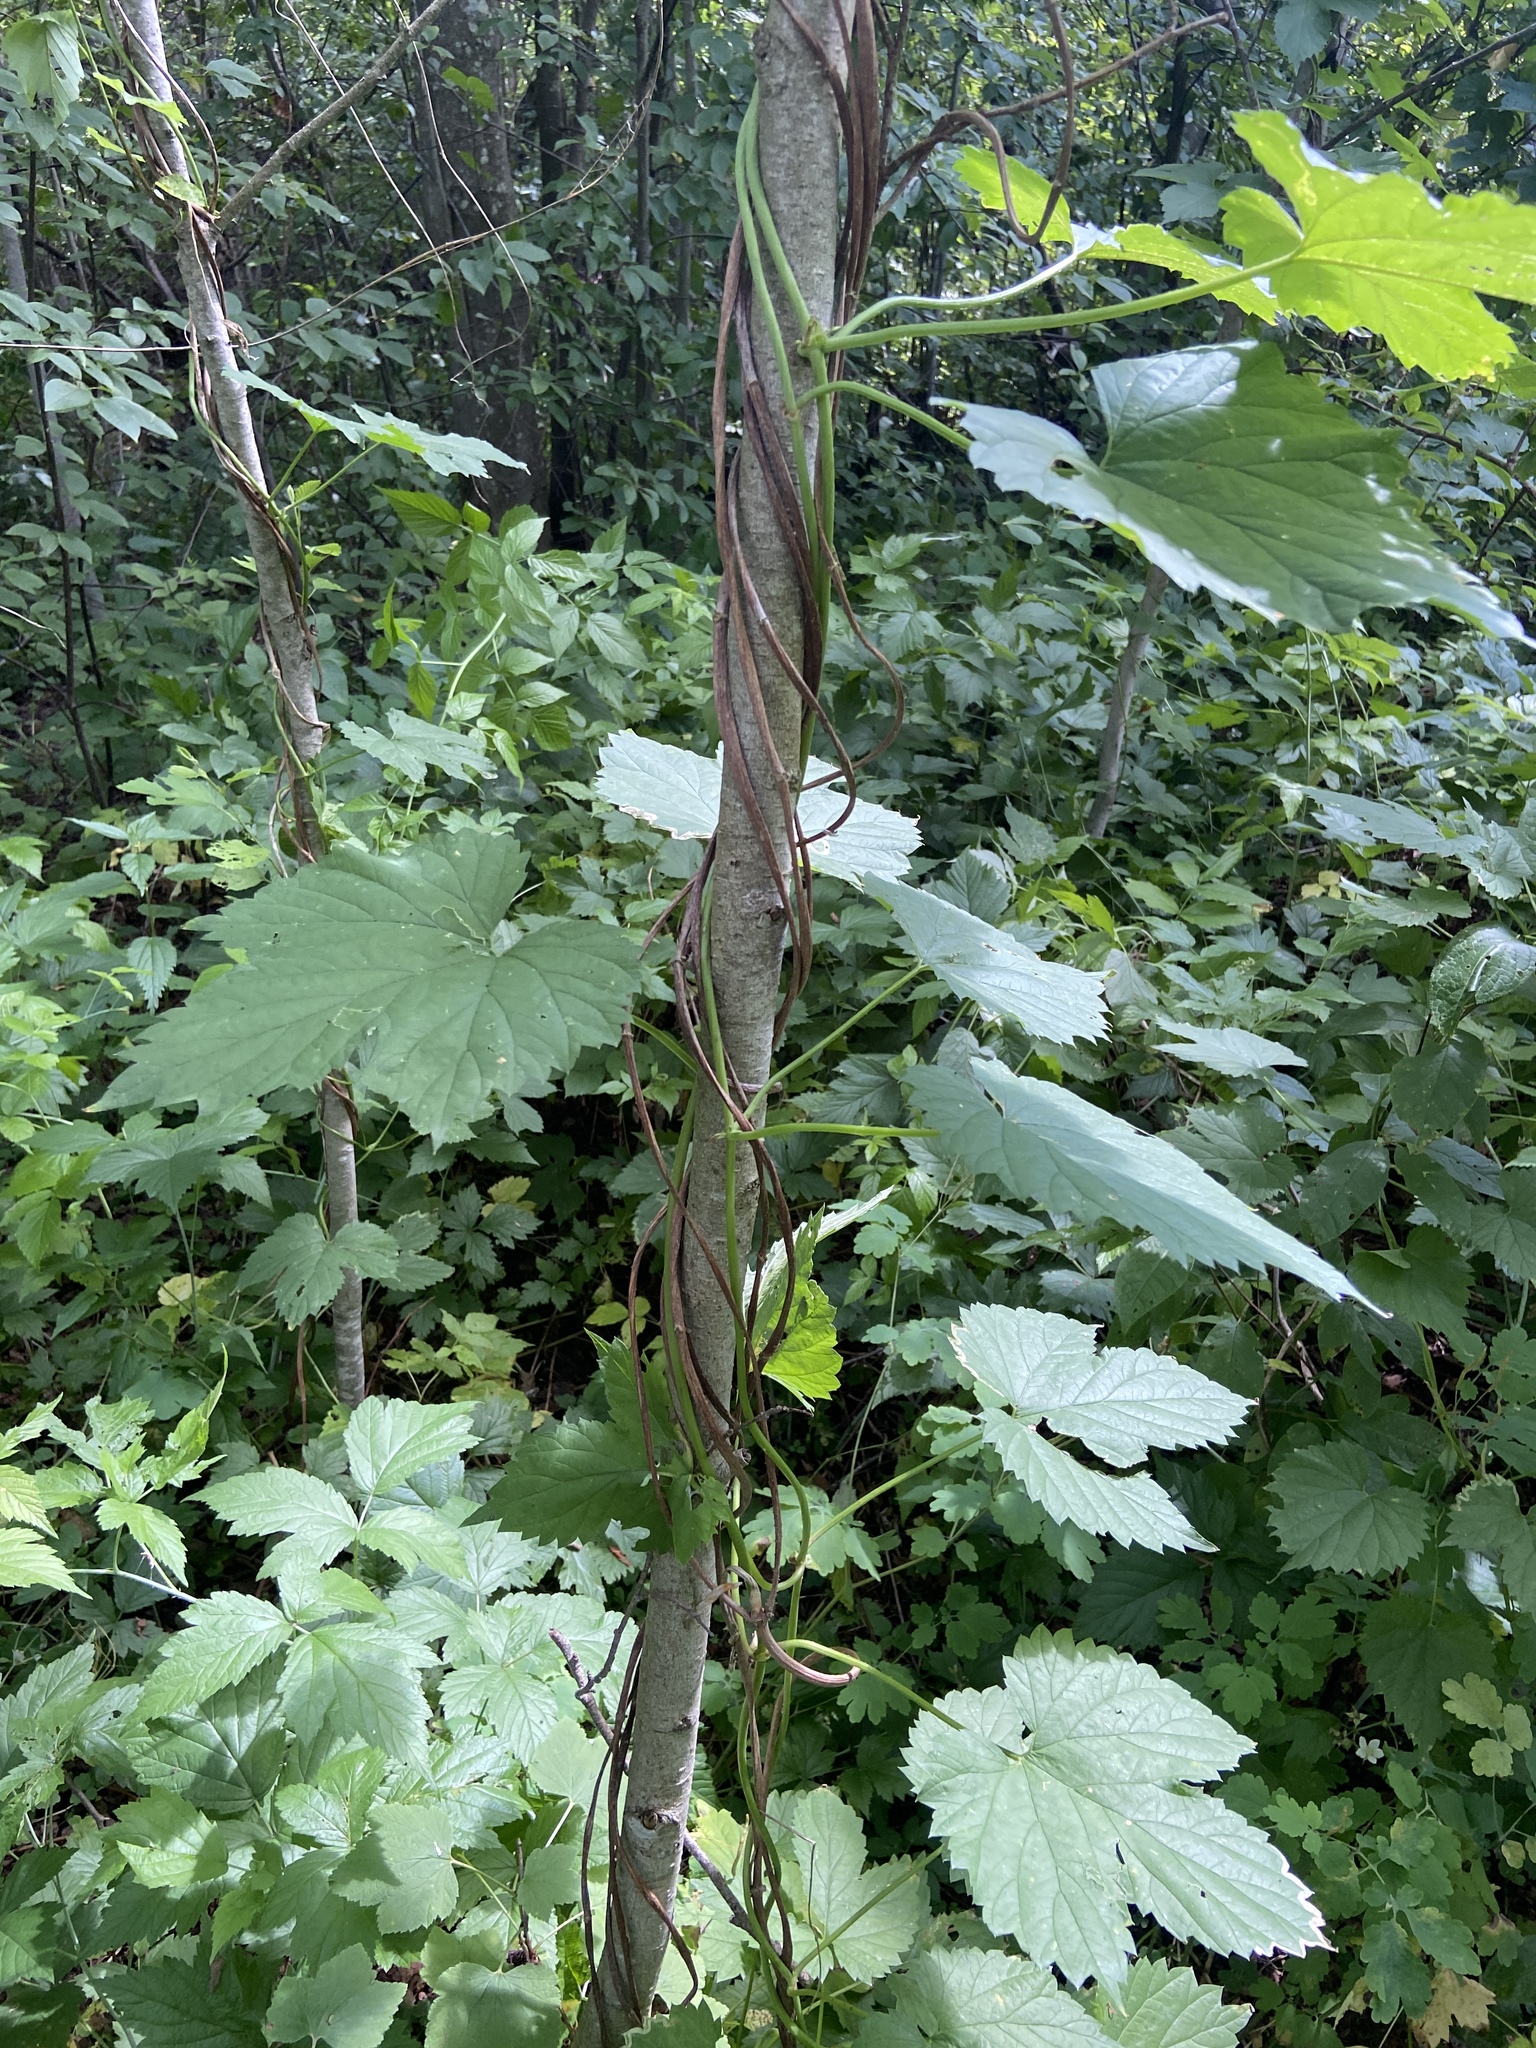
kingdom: Plantae
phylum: Tracheophyta
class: Magnoliopsida
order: Rosales
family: Cannabaceae
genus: Humulus
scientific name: Humulus lupulus
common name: Hop
